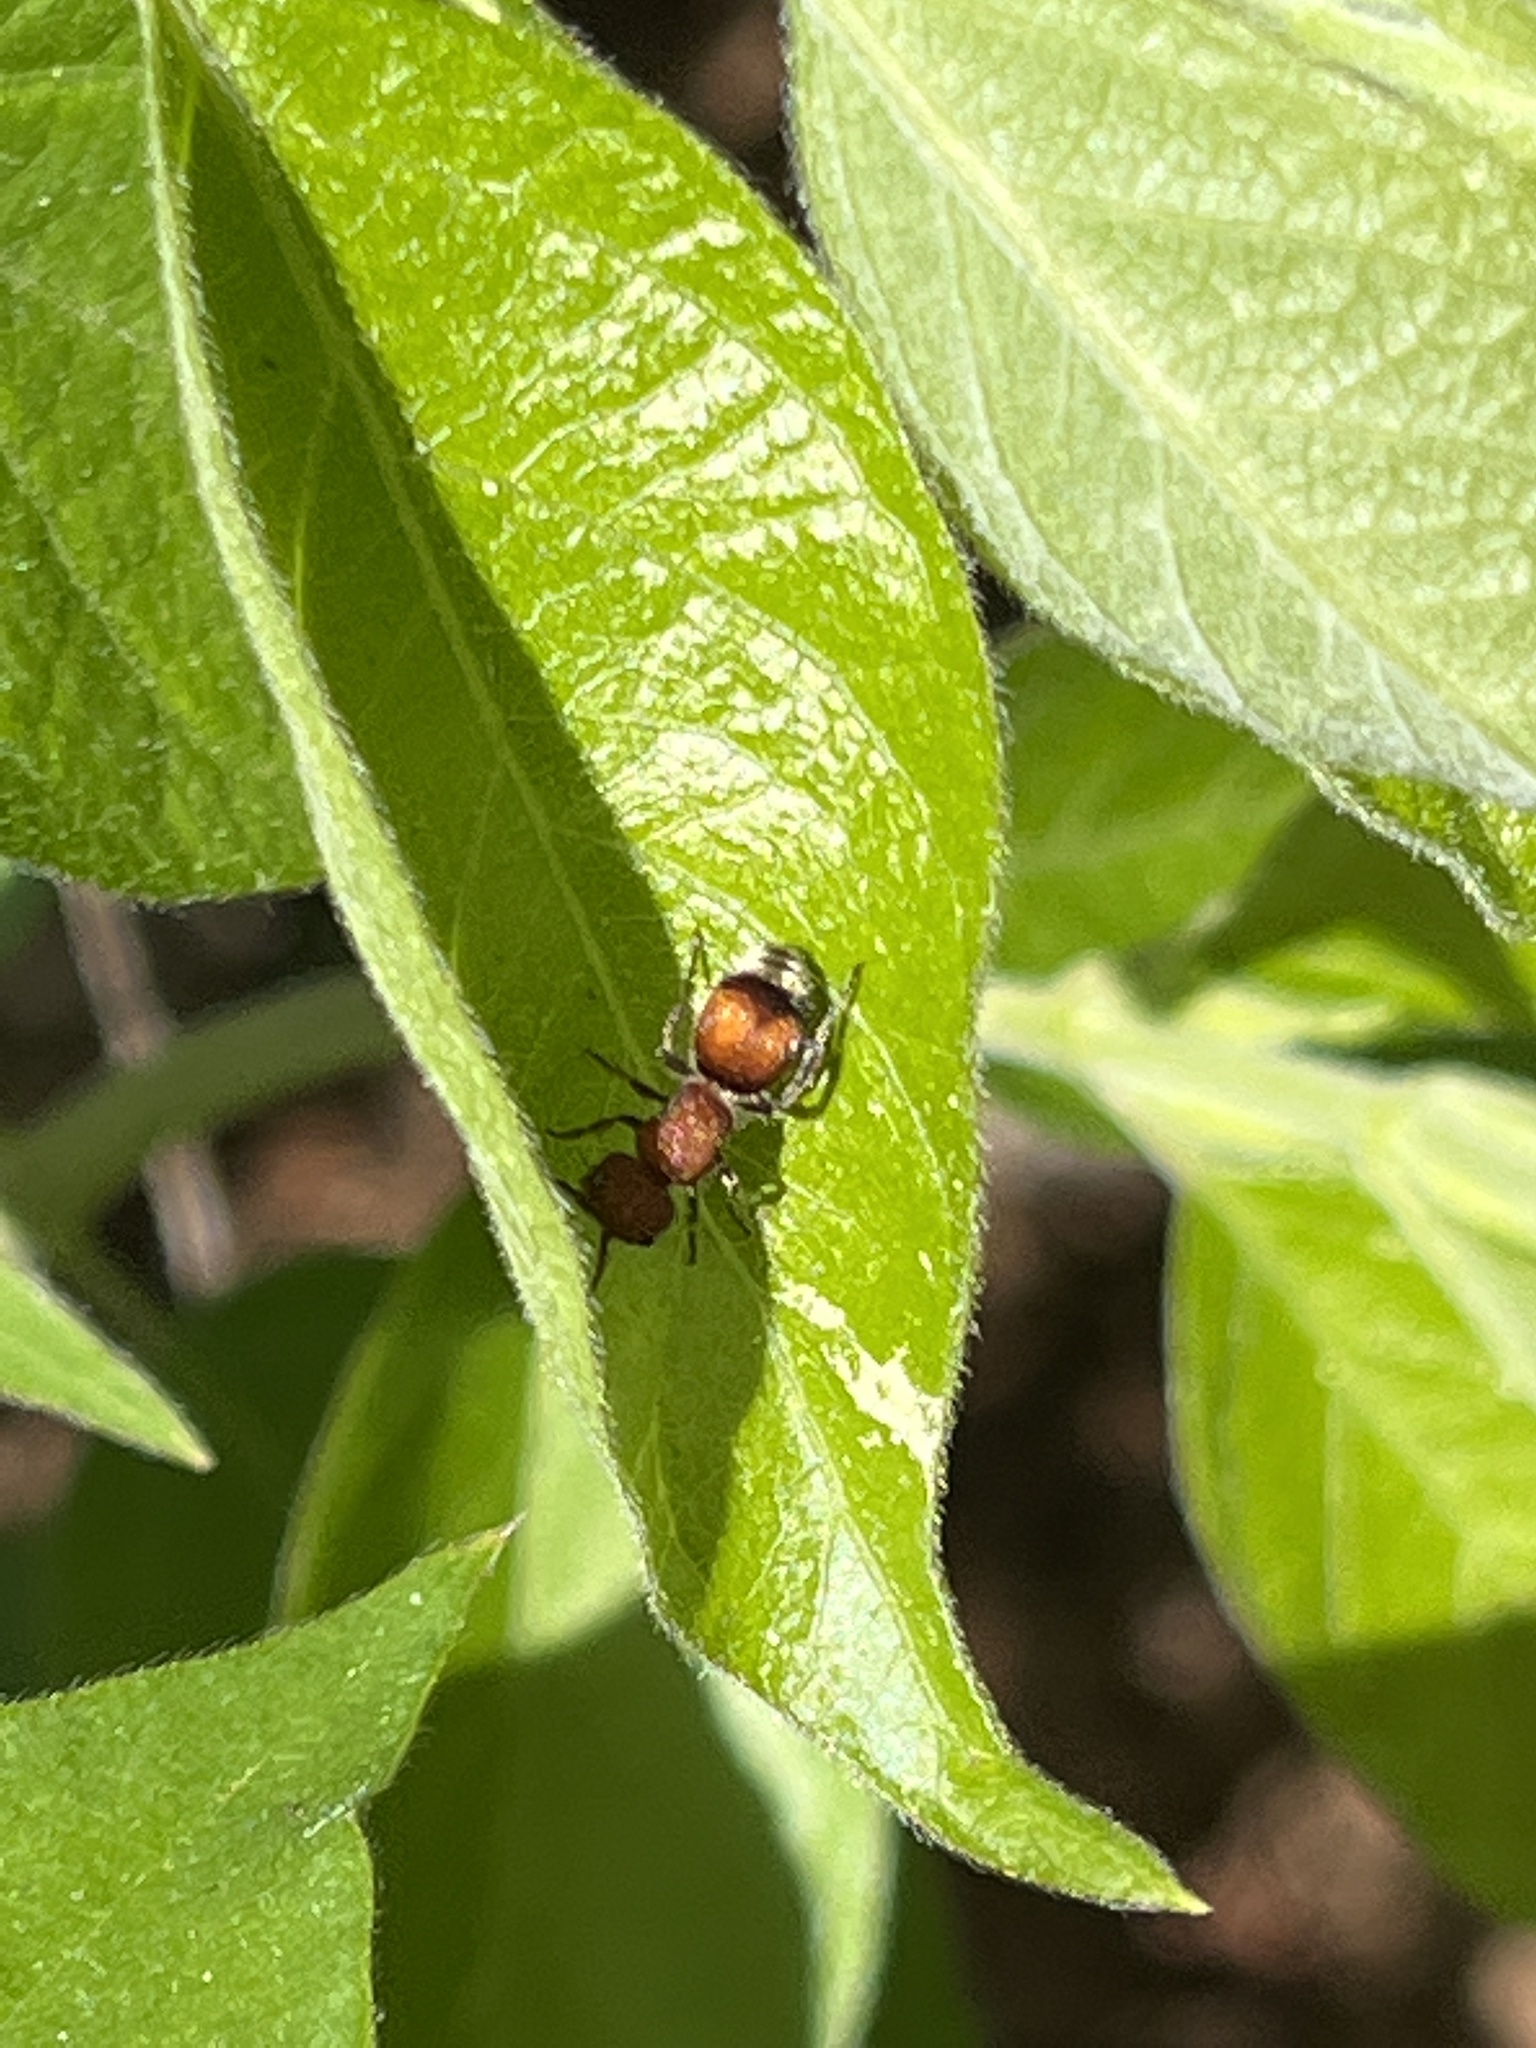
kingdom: Animalia
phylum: Arthropoda
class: Insecta
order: Hymenoptera
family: Mutillidae
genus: Pseudomethoca
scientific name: Pseudomethoca
